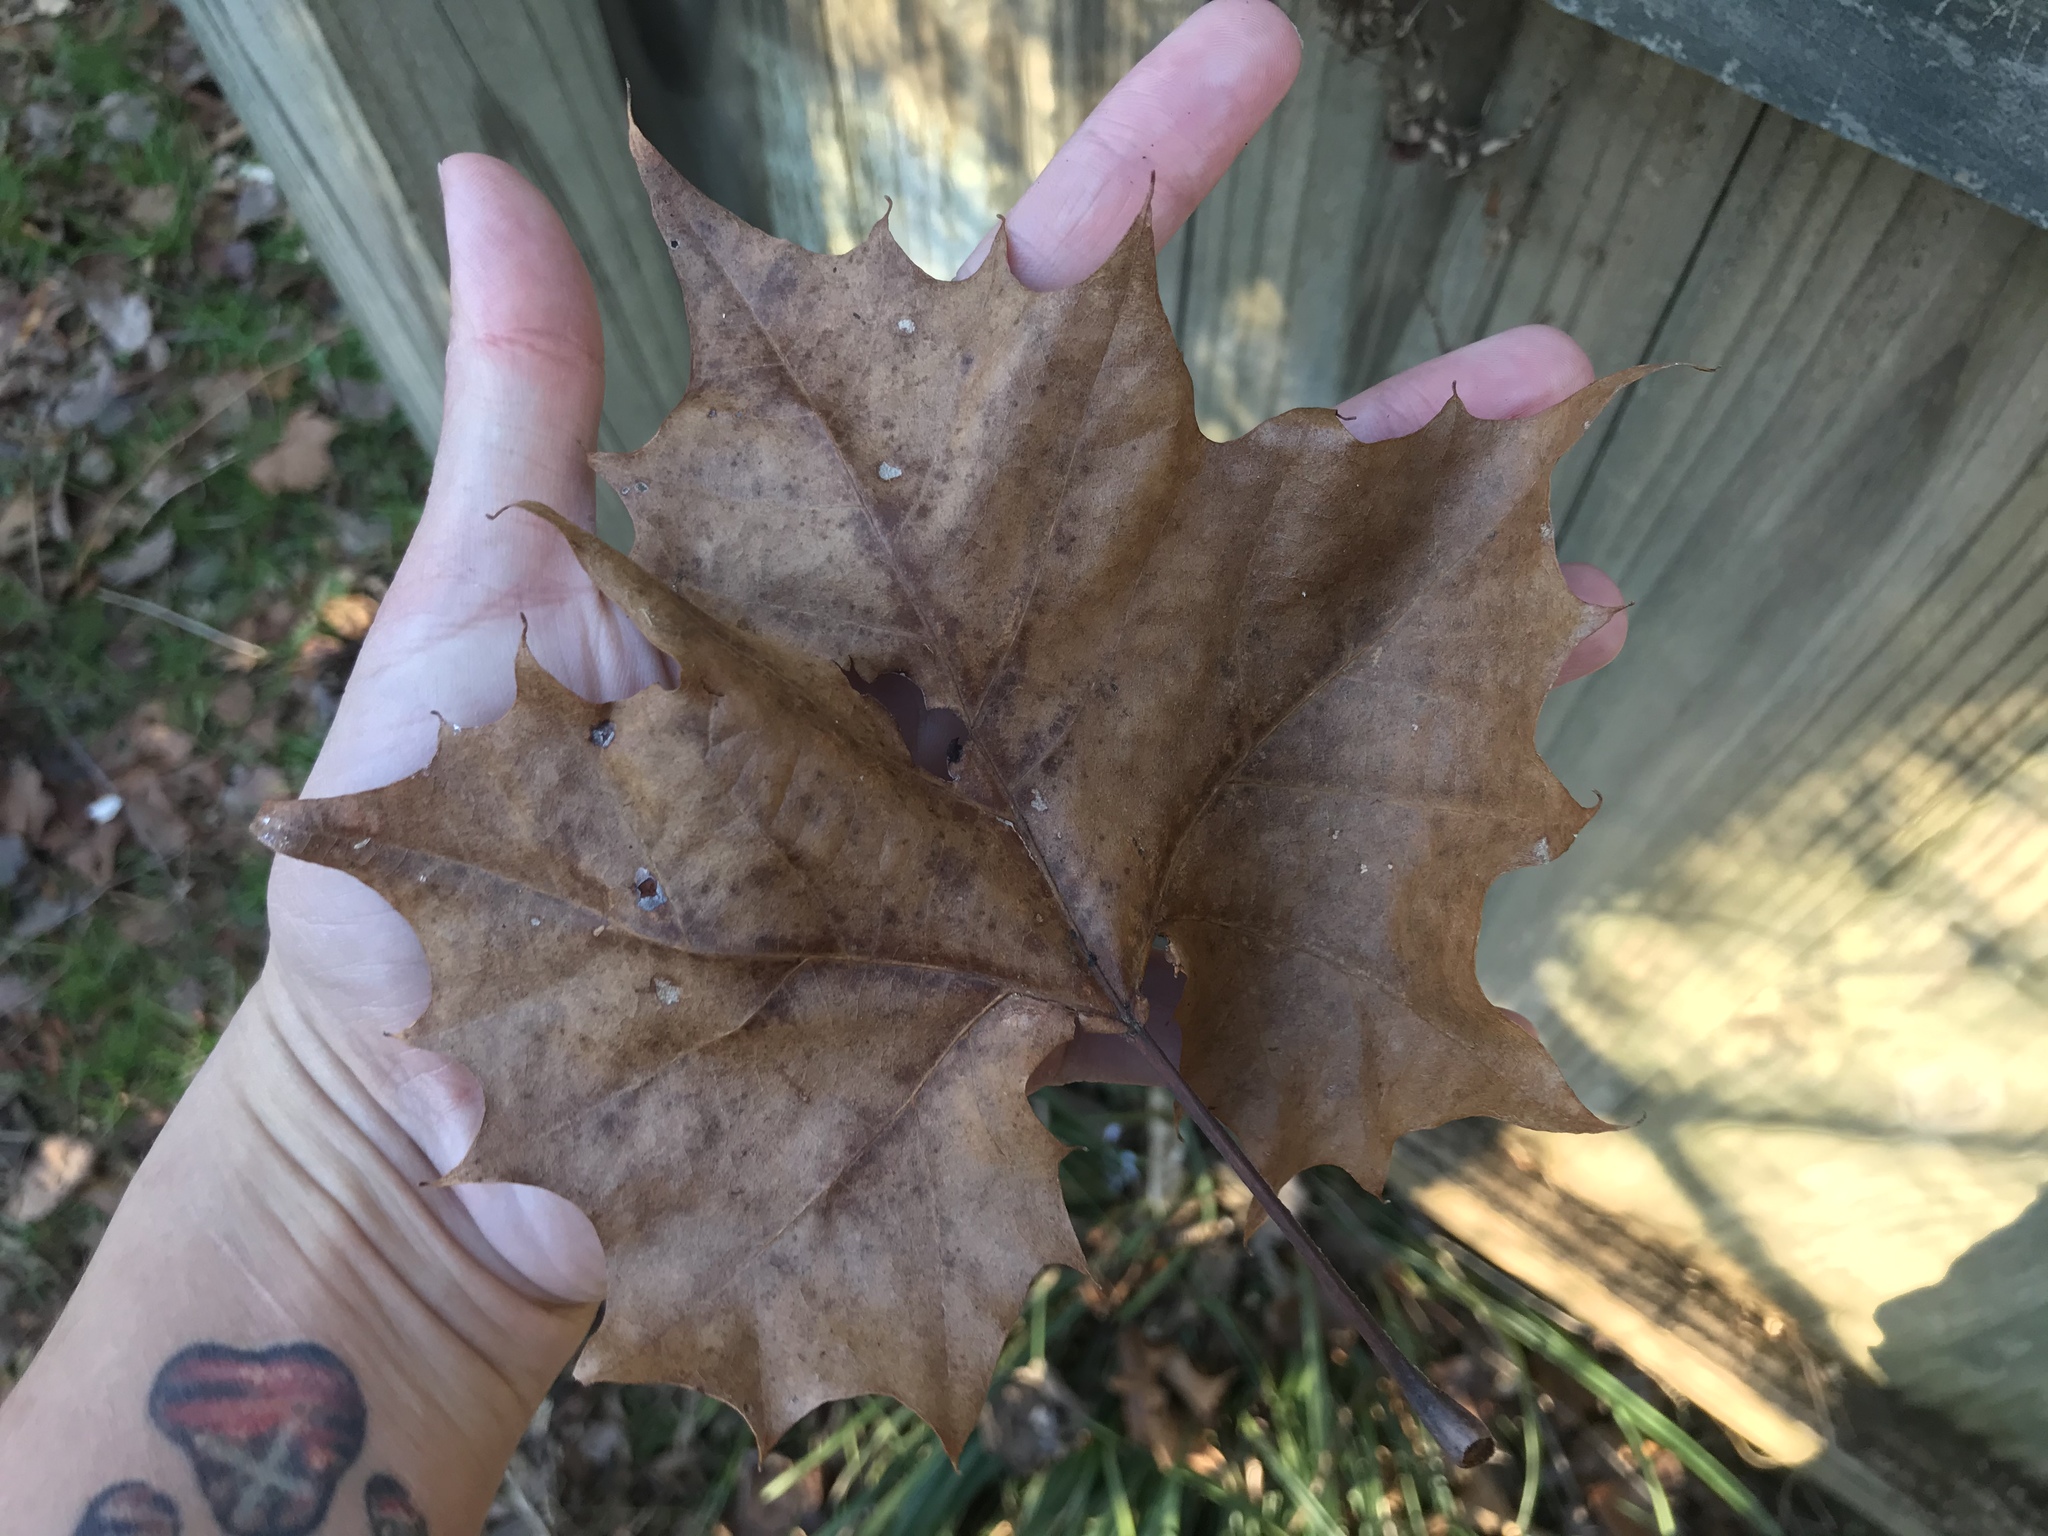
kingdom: Plantae
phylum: Tracheophyta
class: Magnoliopsida
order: Proteales
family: Platanaceae
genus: Platanus
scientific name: Platanus occidentalis
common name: American sycamore
